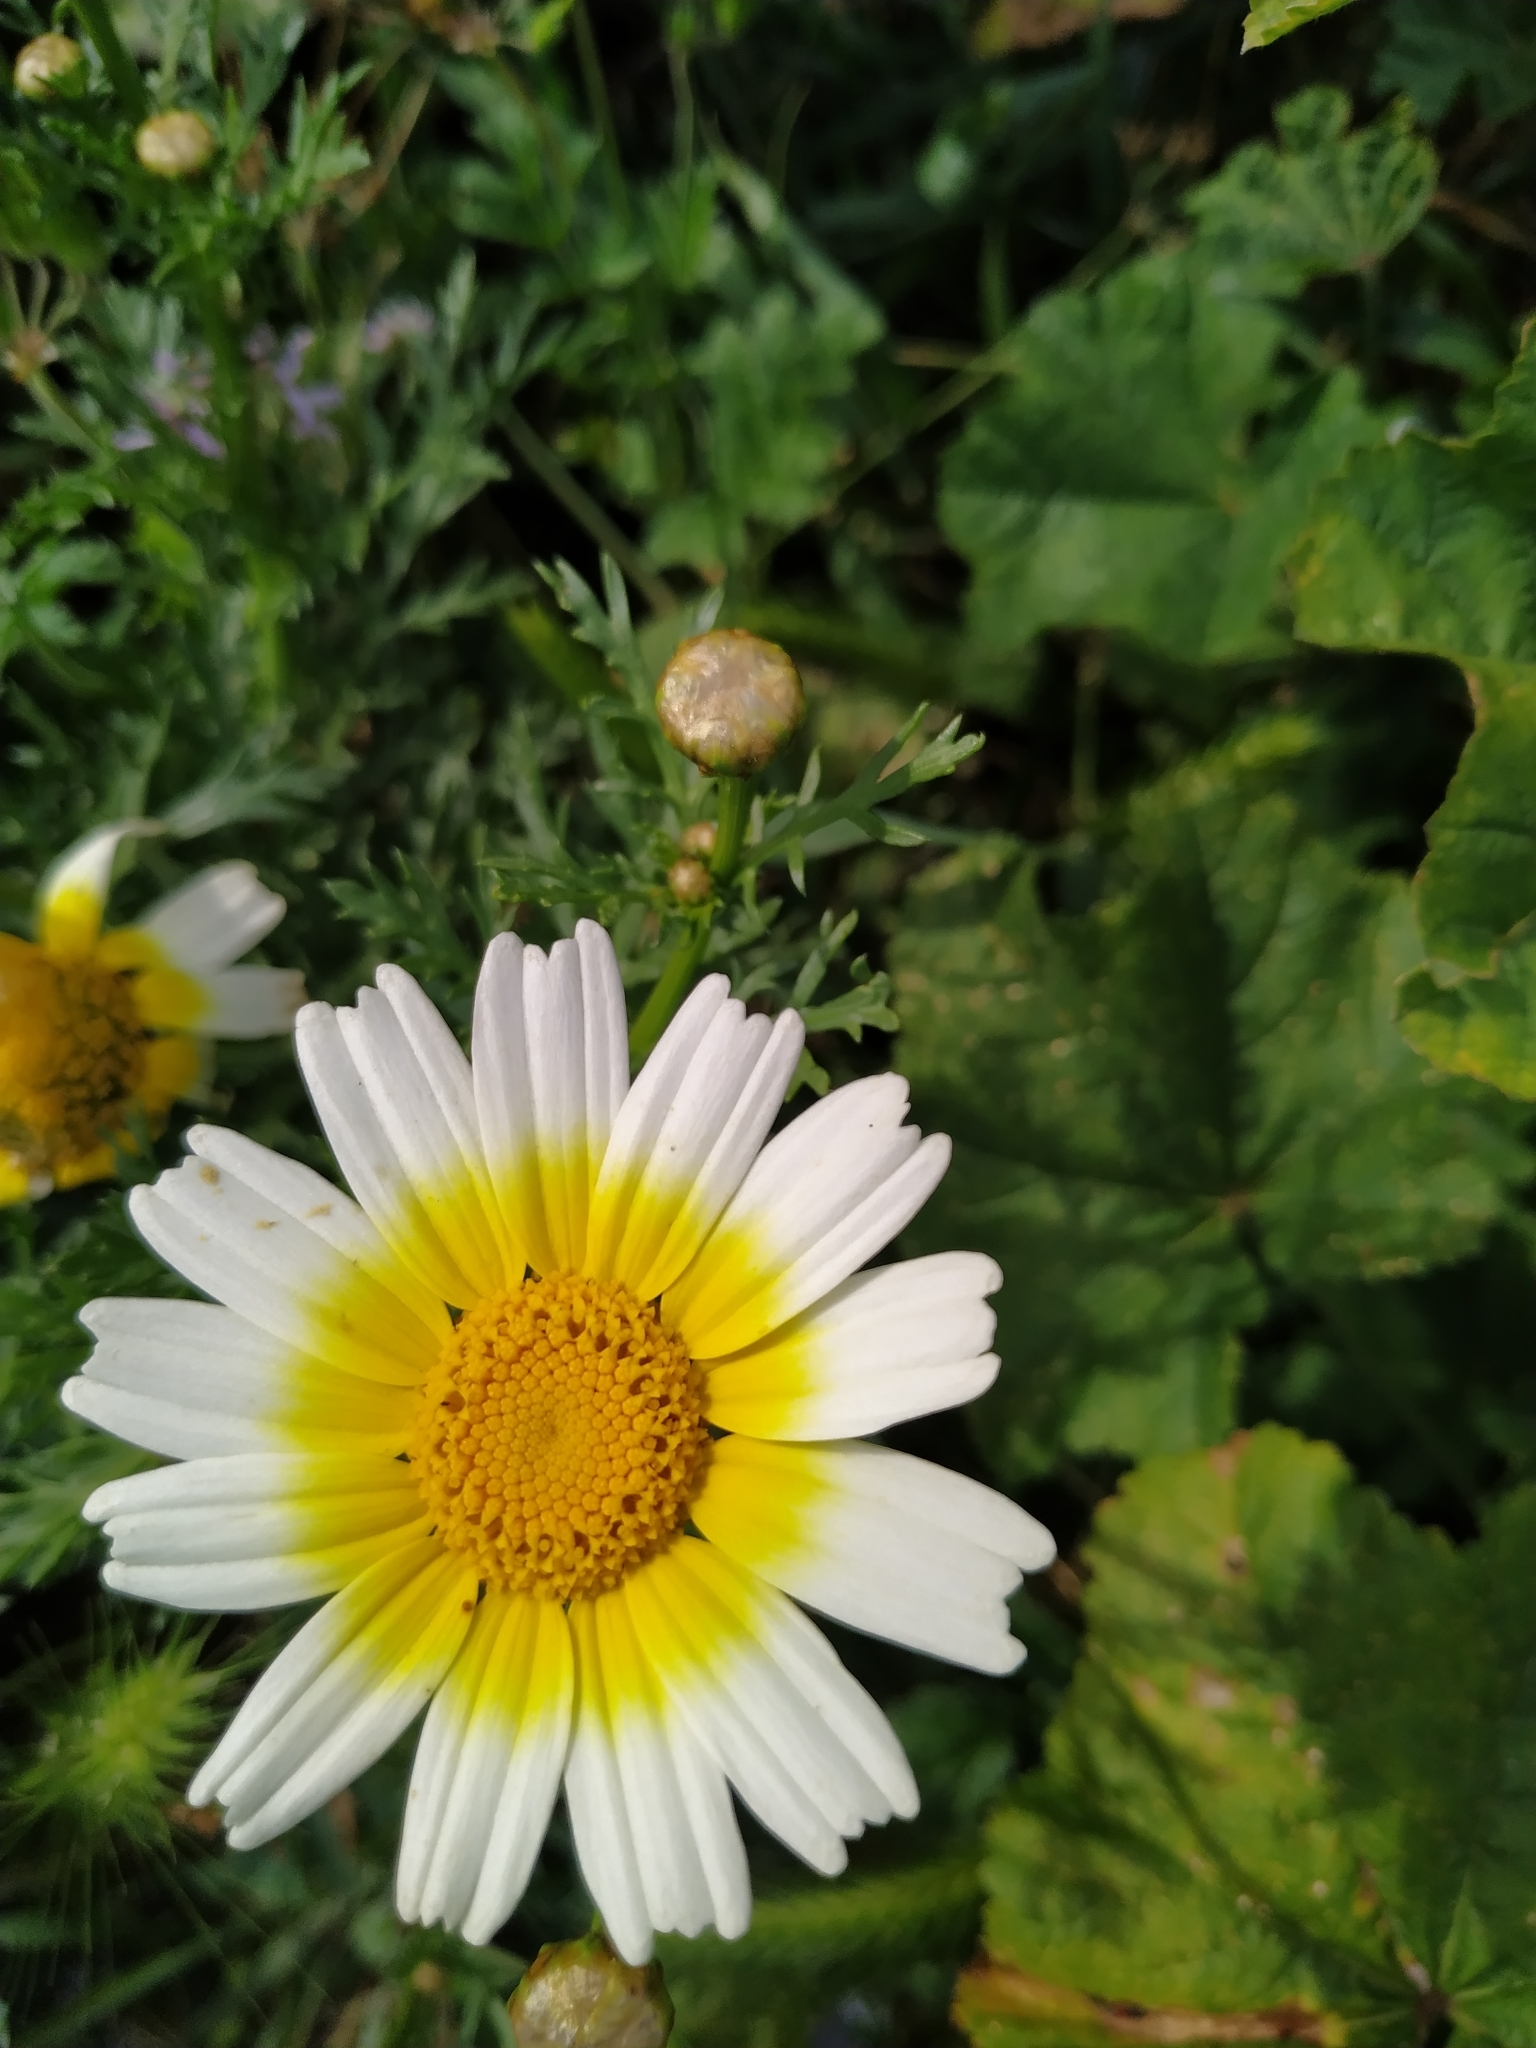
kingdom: Plantae
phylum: Tracheophyta
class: Magnoliopsida
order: Asterales
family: Asteraceae
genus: Glebionis
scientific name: Glebionis coronaria
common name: Crowndaisy
